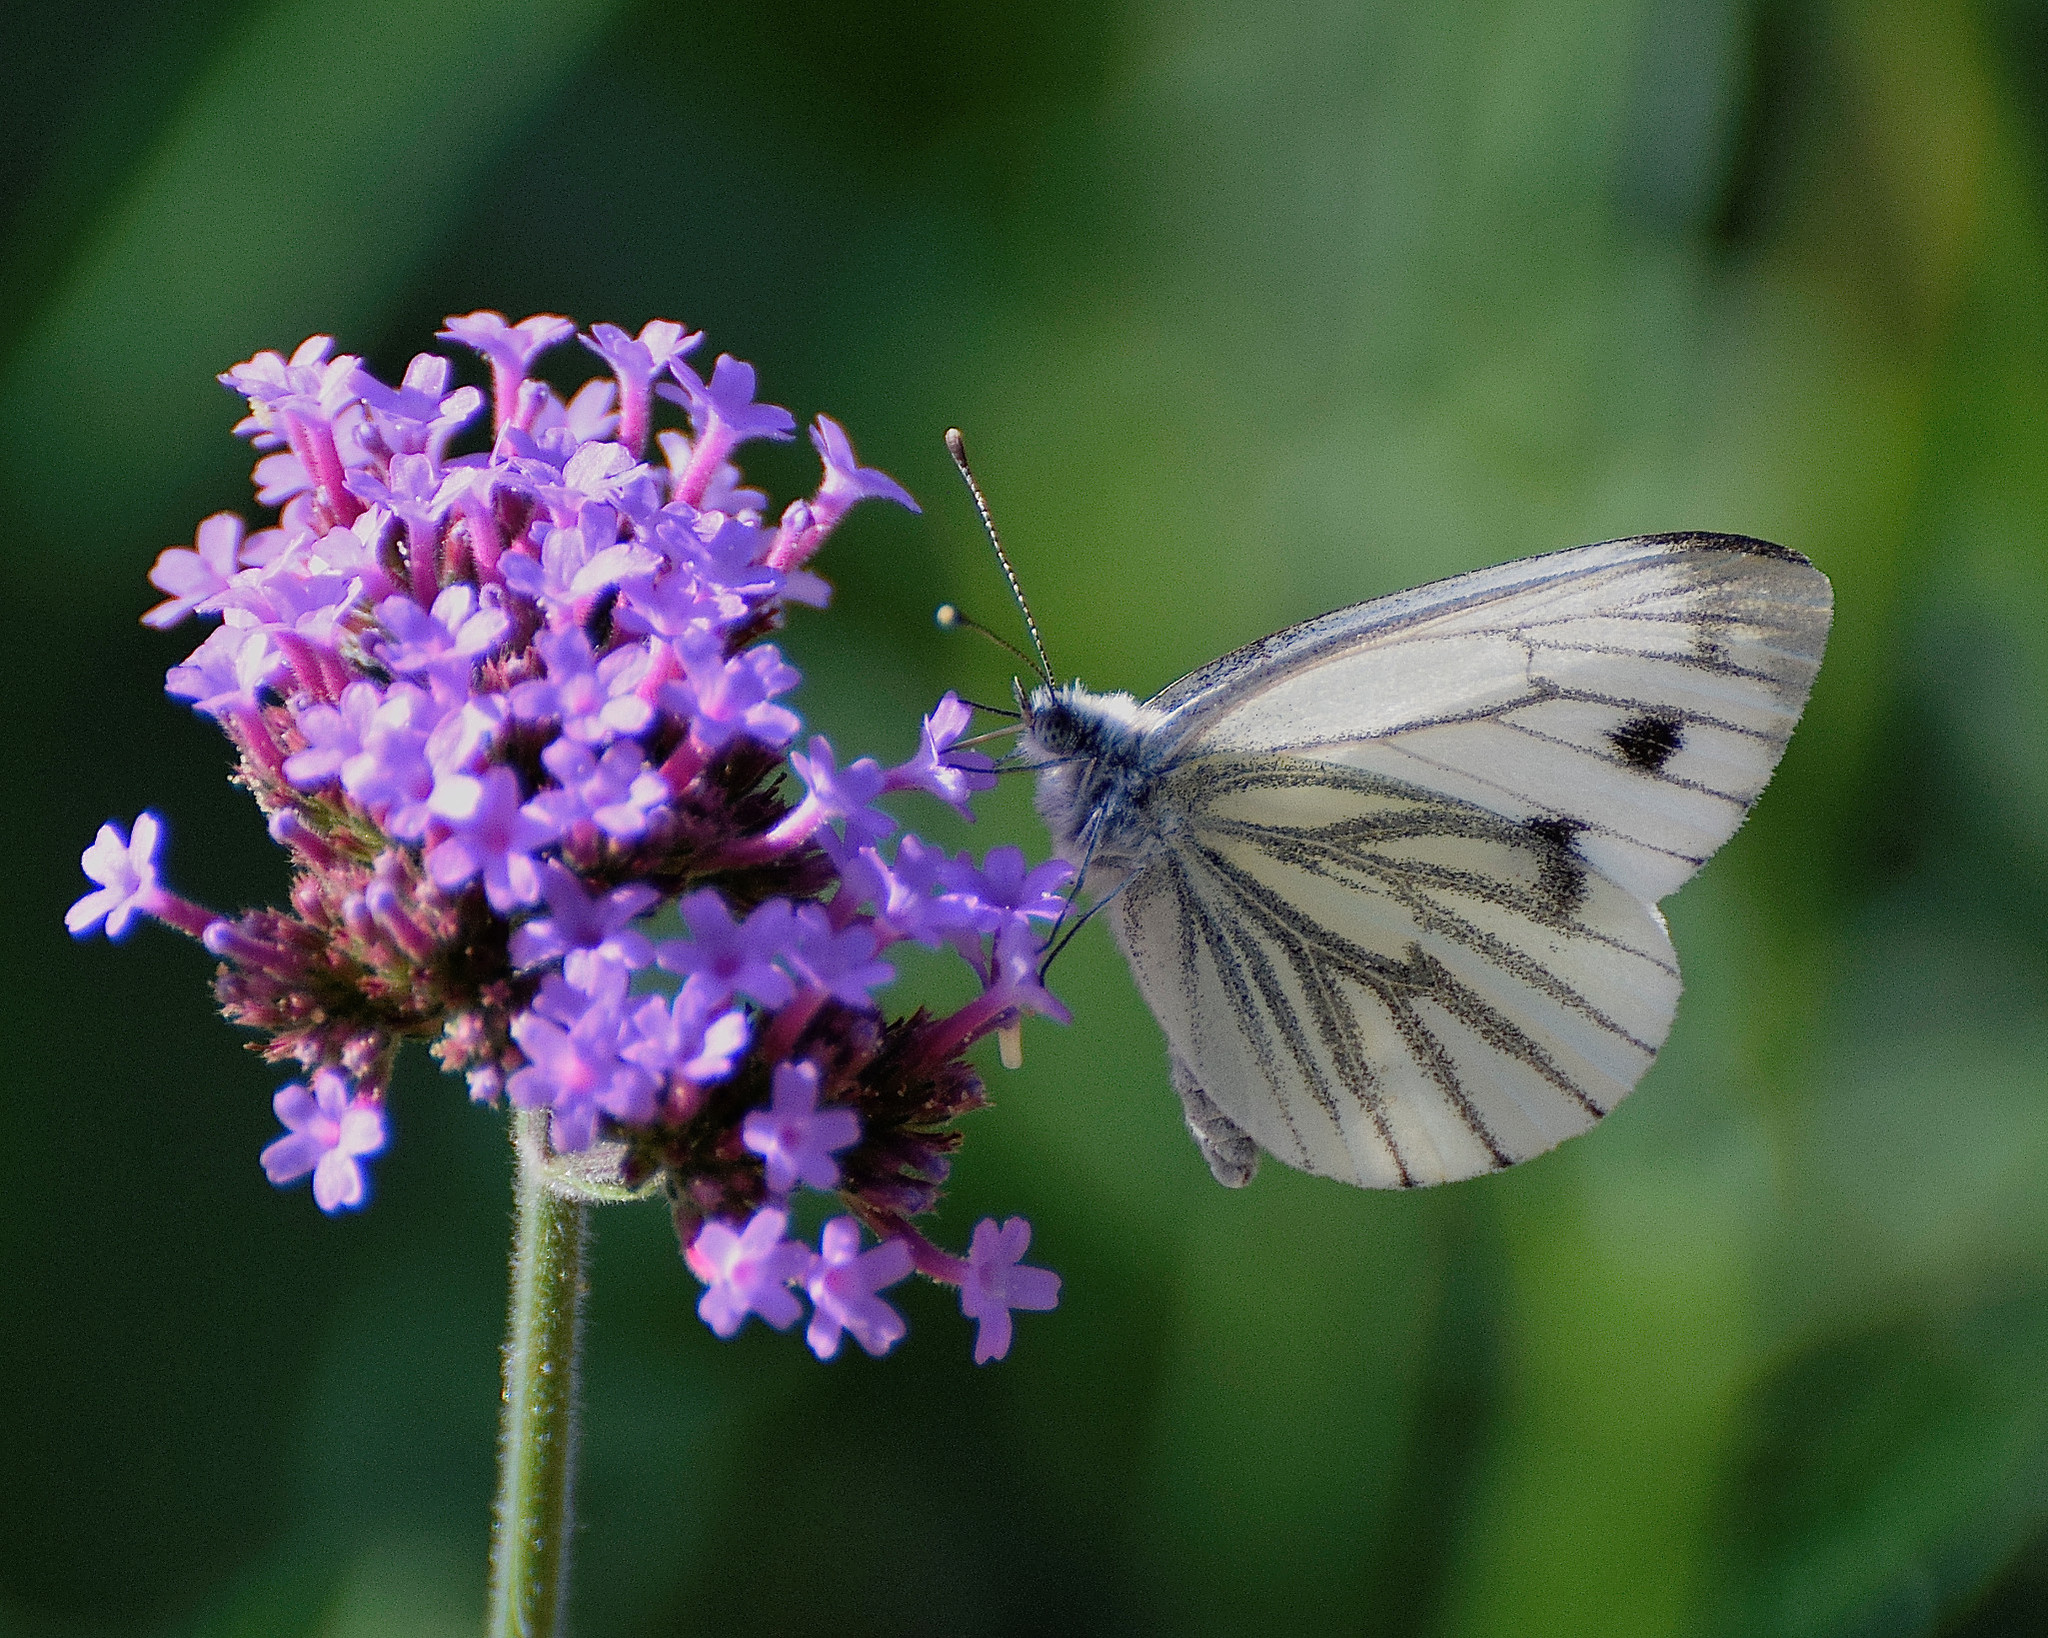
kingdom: Animalia
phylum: Arthropoda
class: Insecta
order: Lepidoptera
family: Pieridae
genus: Pieris
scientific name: Pieris napi
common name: Green-veined white
